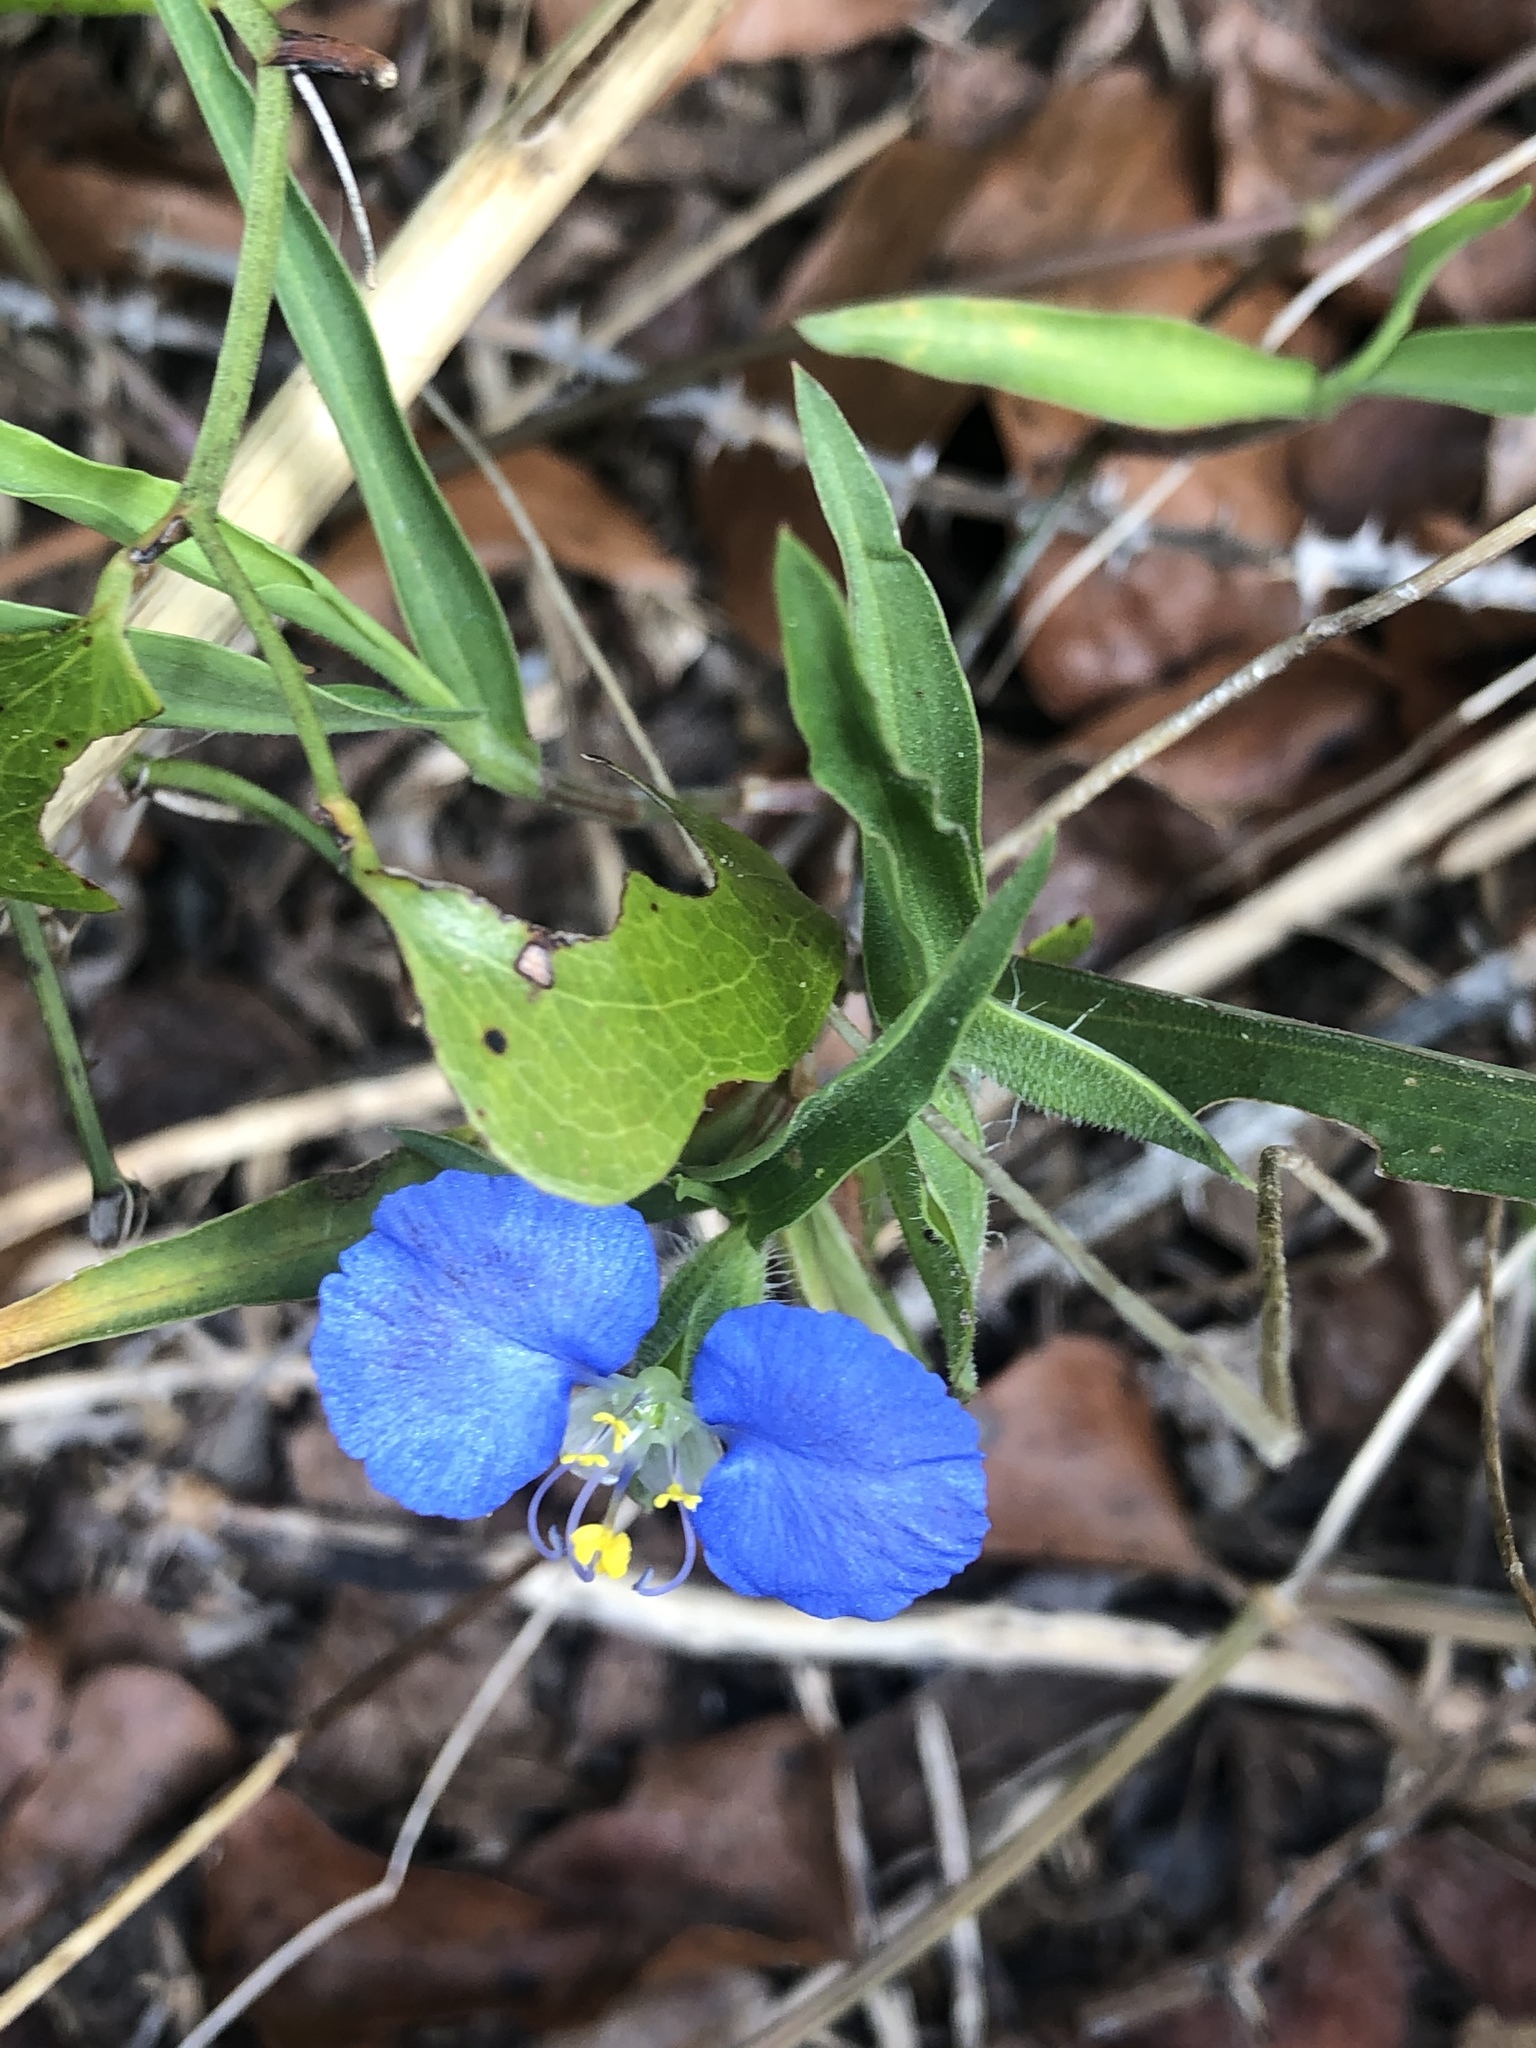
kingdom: Plantae
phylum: Tracheophyta
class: Liliopsida
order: Commelinales
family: Commelinaceae
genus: Commelina
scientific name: Commelina erecta
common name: Blousel blommetjie
